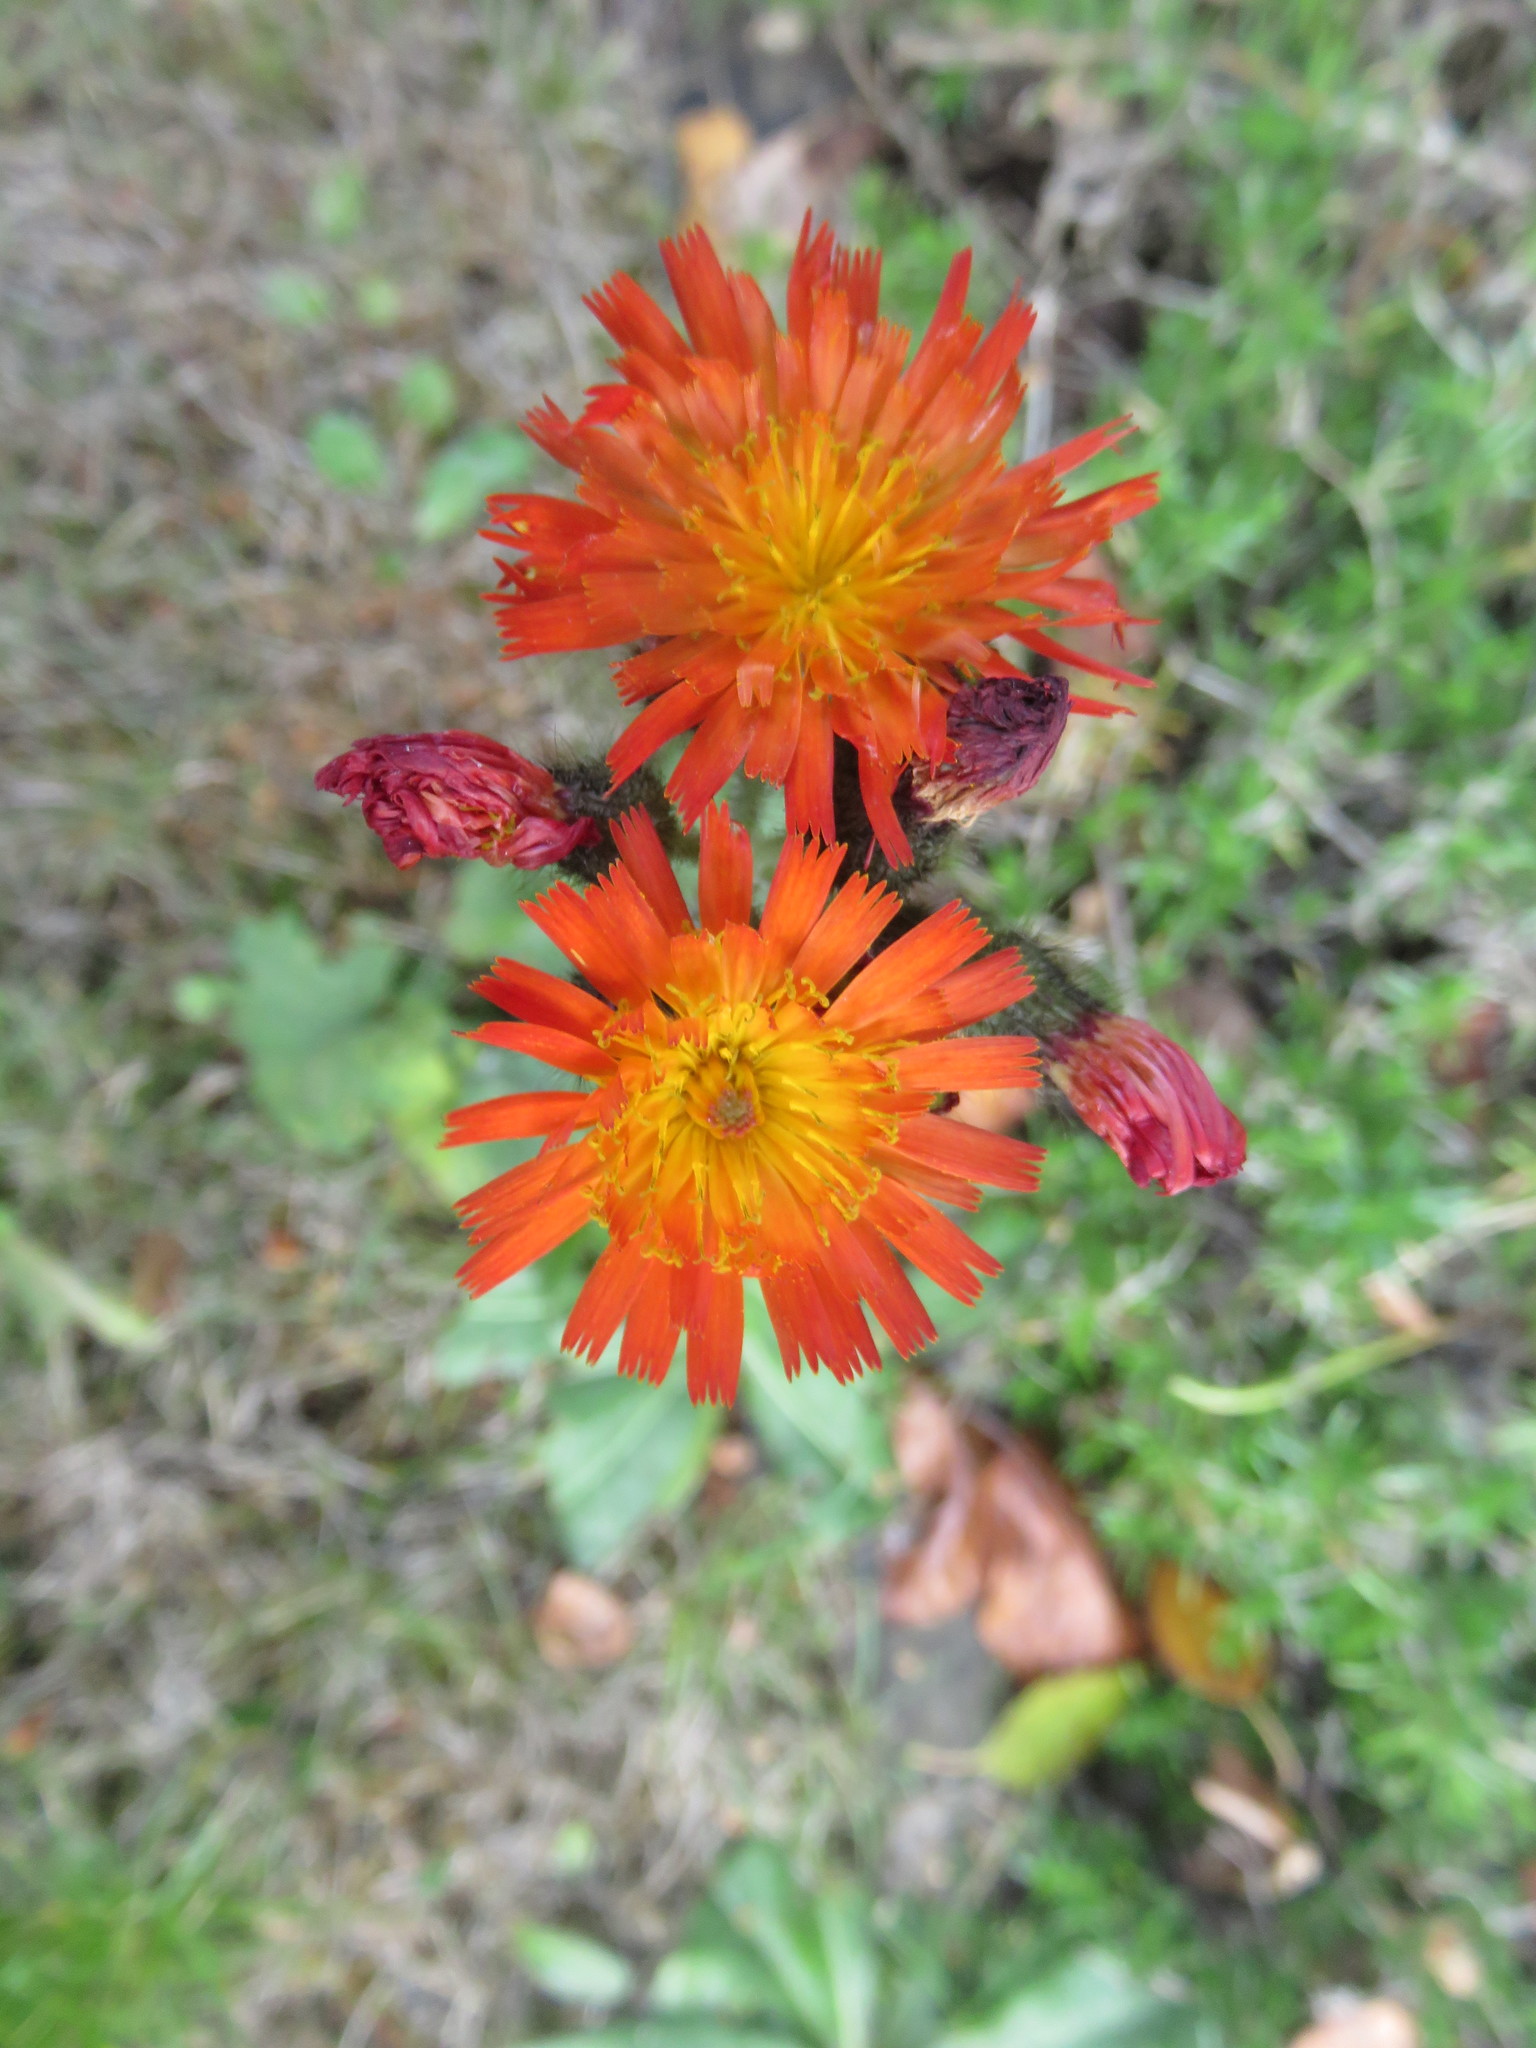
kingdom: Plantae
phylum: Tracheophyta
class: Magnoliopsida
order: Asterales
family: Asteraceae
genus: Pilosella
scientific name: Pilosella aurantiaca
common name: Fox-and-cubs
